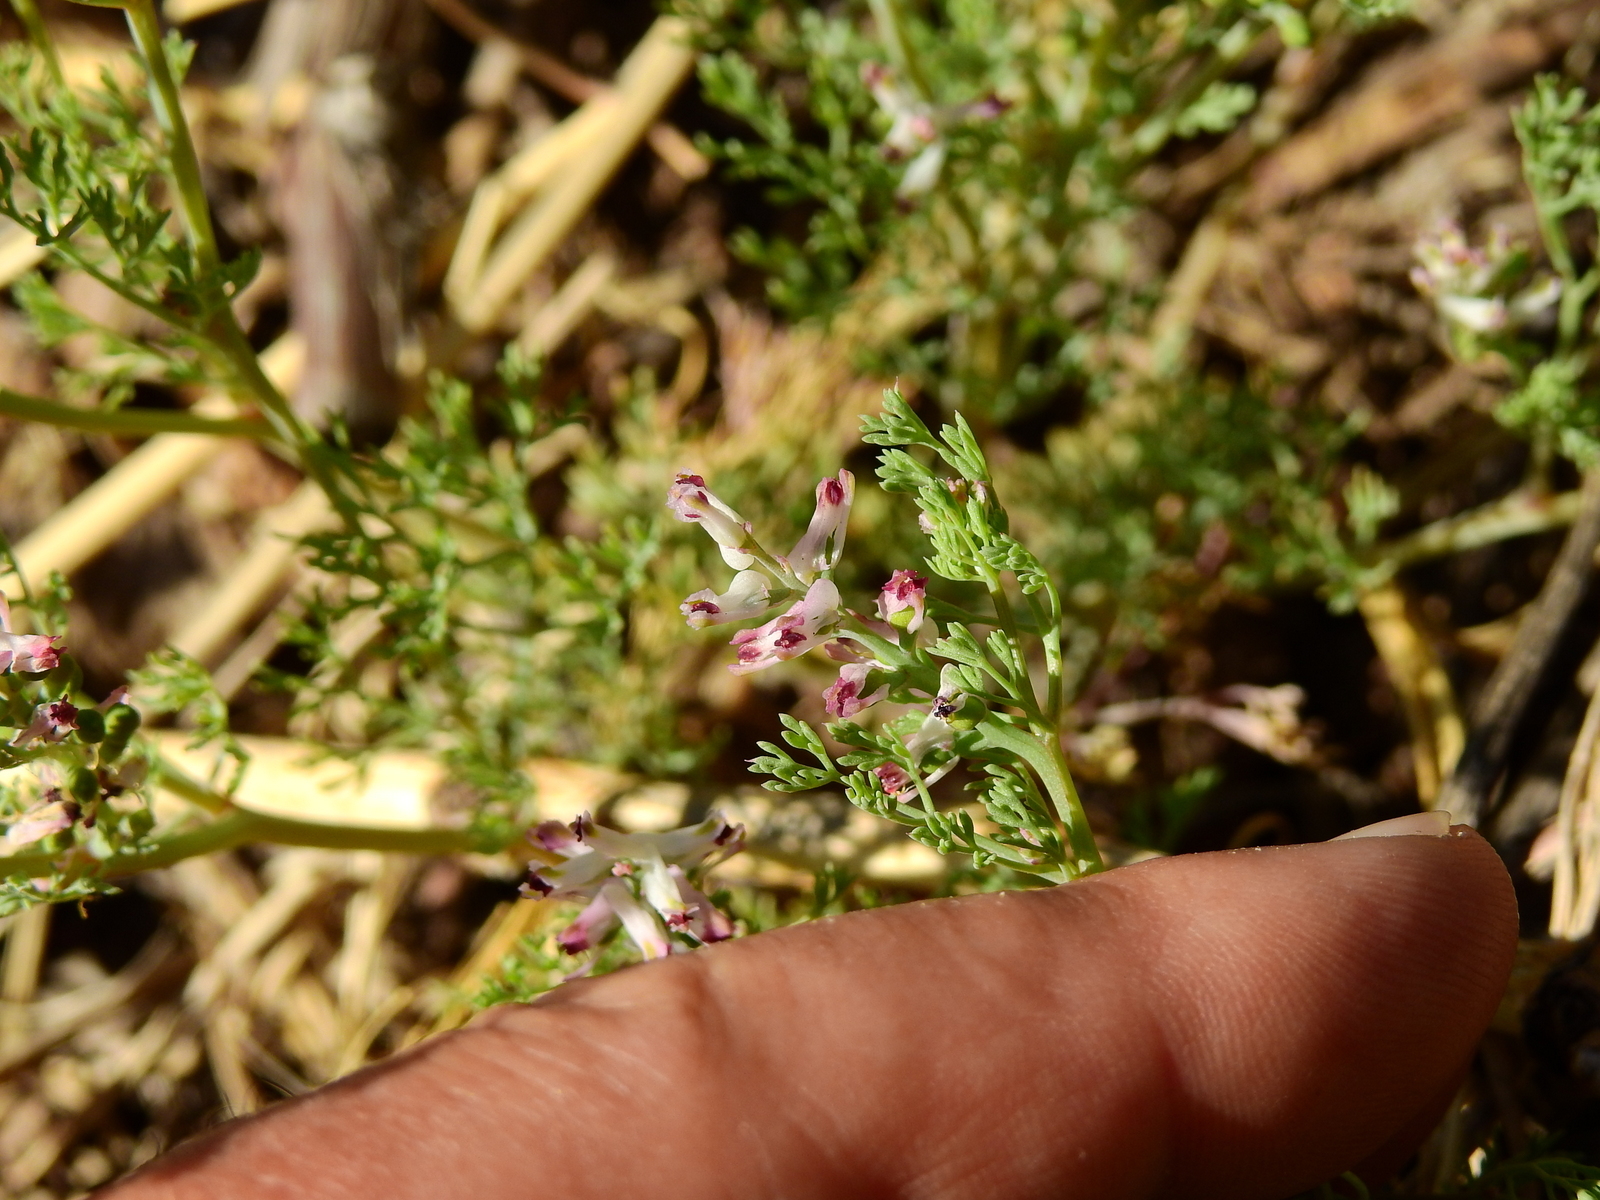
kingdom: Plantae
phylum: Tracheophyta
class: Magnoliopsida
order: Ranunculales
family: Papaveraceae
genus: Fumaria
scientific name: Fumaria densiflora
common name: Dense-flowered fumitory
